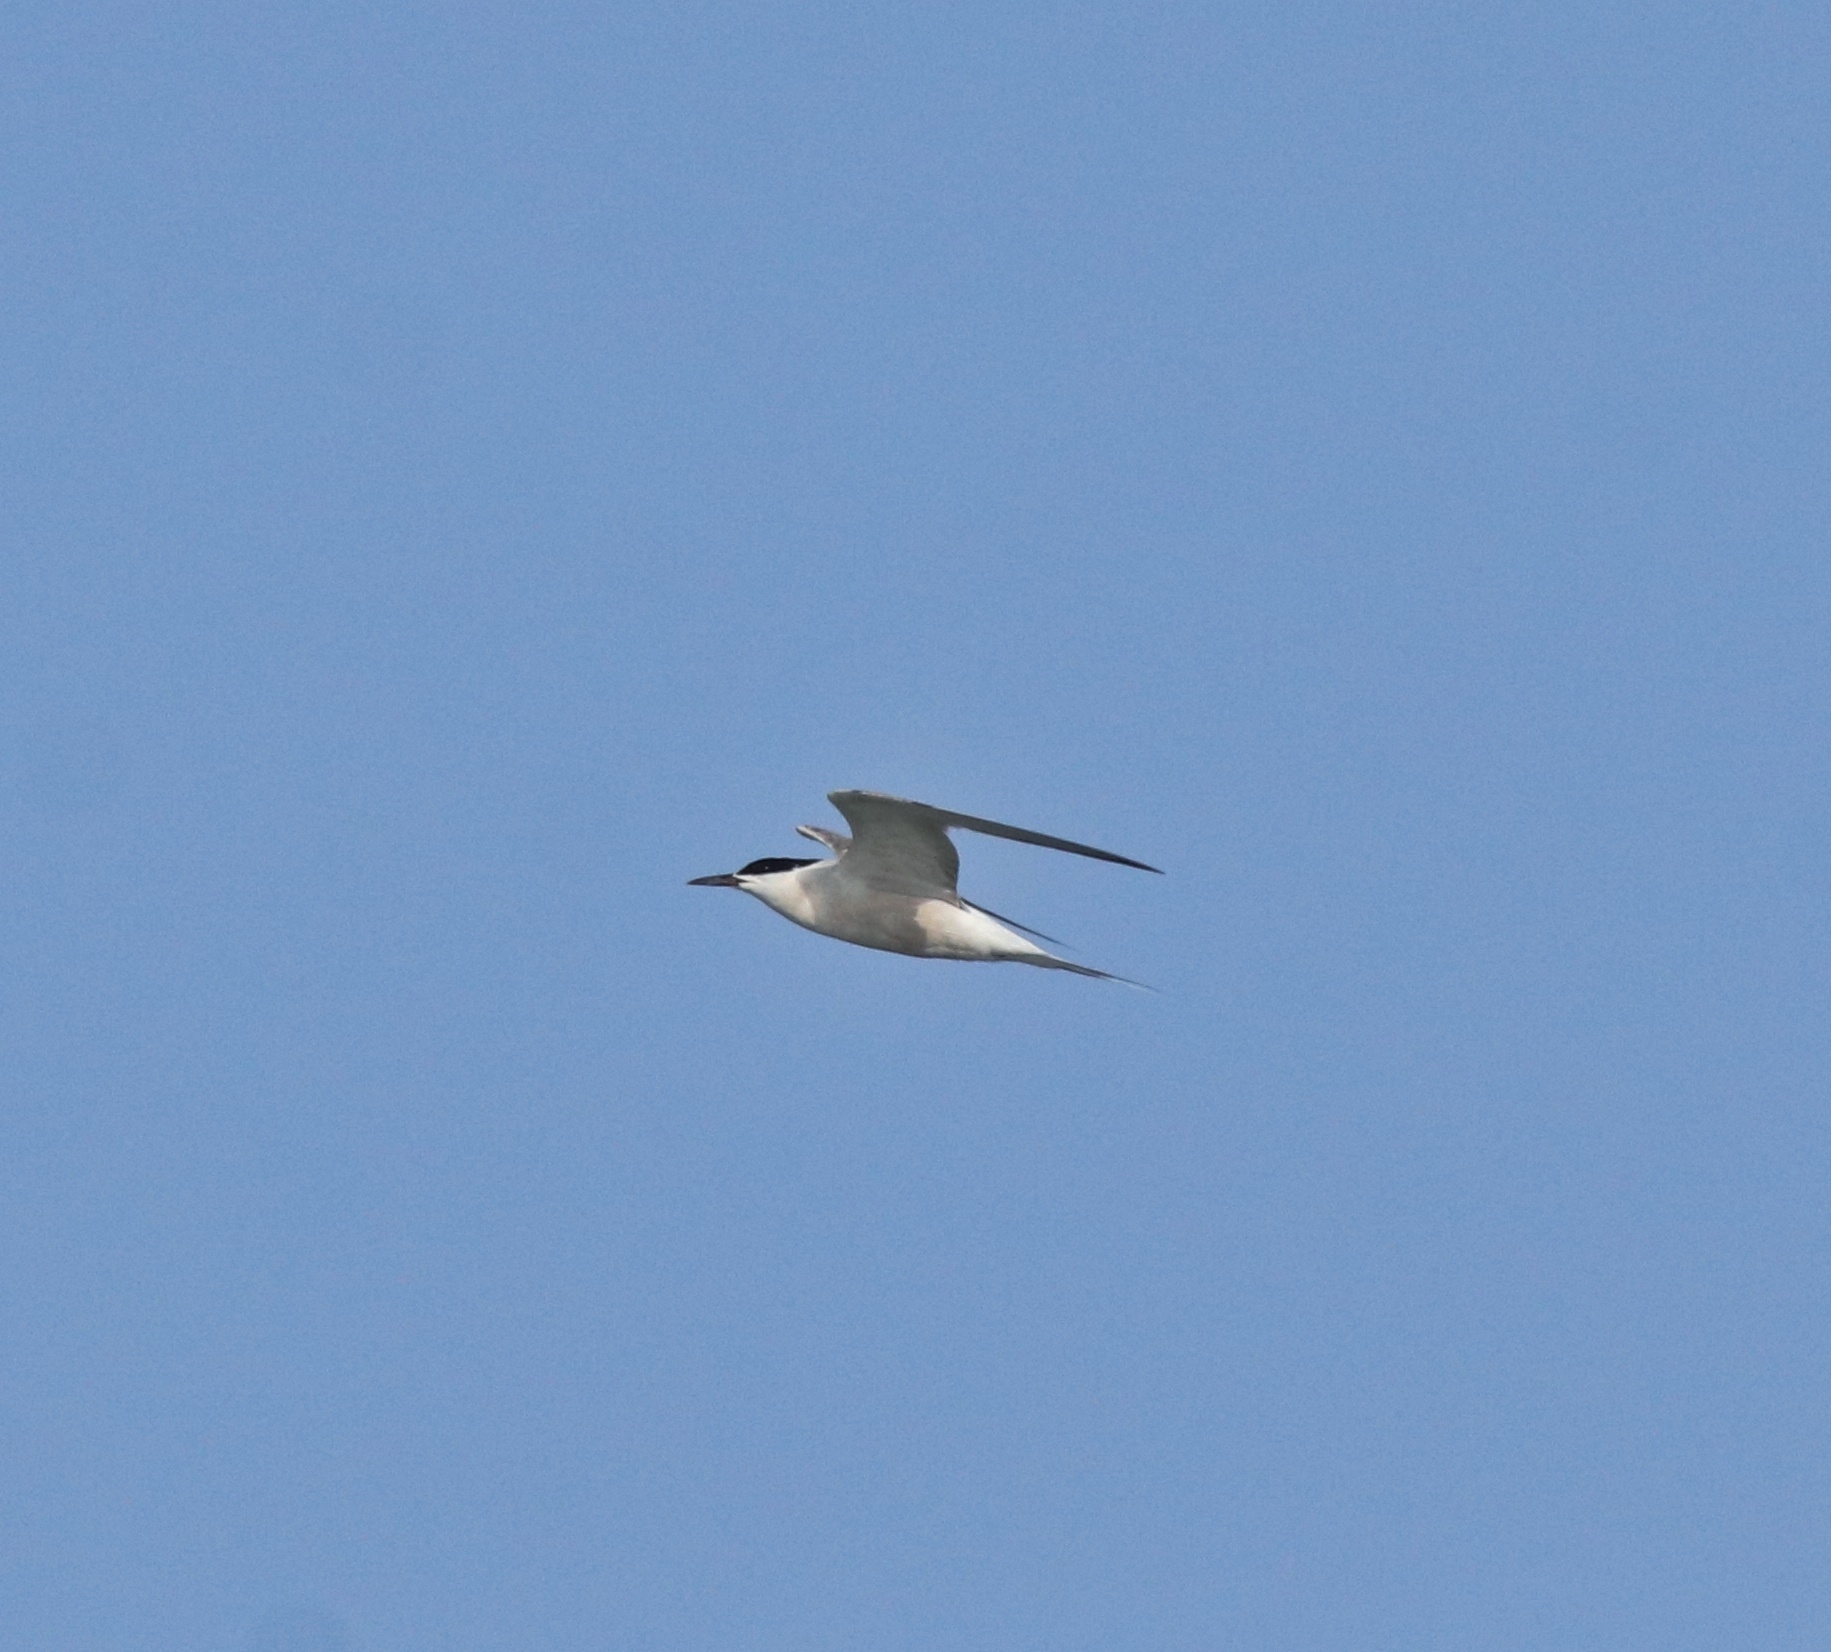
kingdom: Animalia
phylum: Chordata
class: Aves
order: Charadriiformes
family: Laridae
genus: Sterna
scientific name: Sterna hirundo
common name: Common tern
